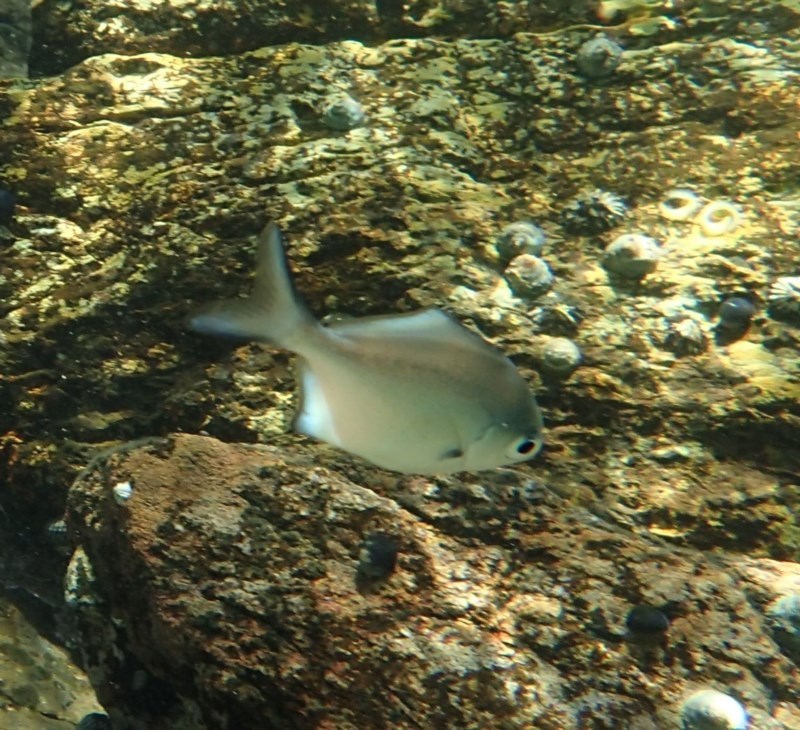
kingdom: Animalia
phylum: Chordata
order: Perciformes
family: Kyphosidae
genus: Scorpis
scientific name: Scorpis lineolata
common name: Sweep
